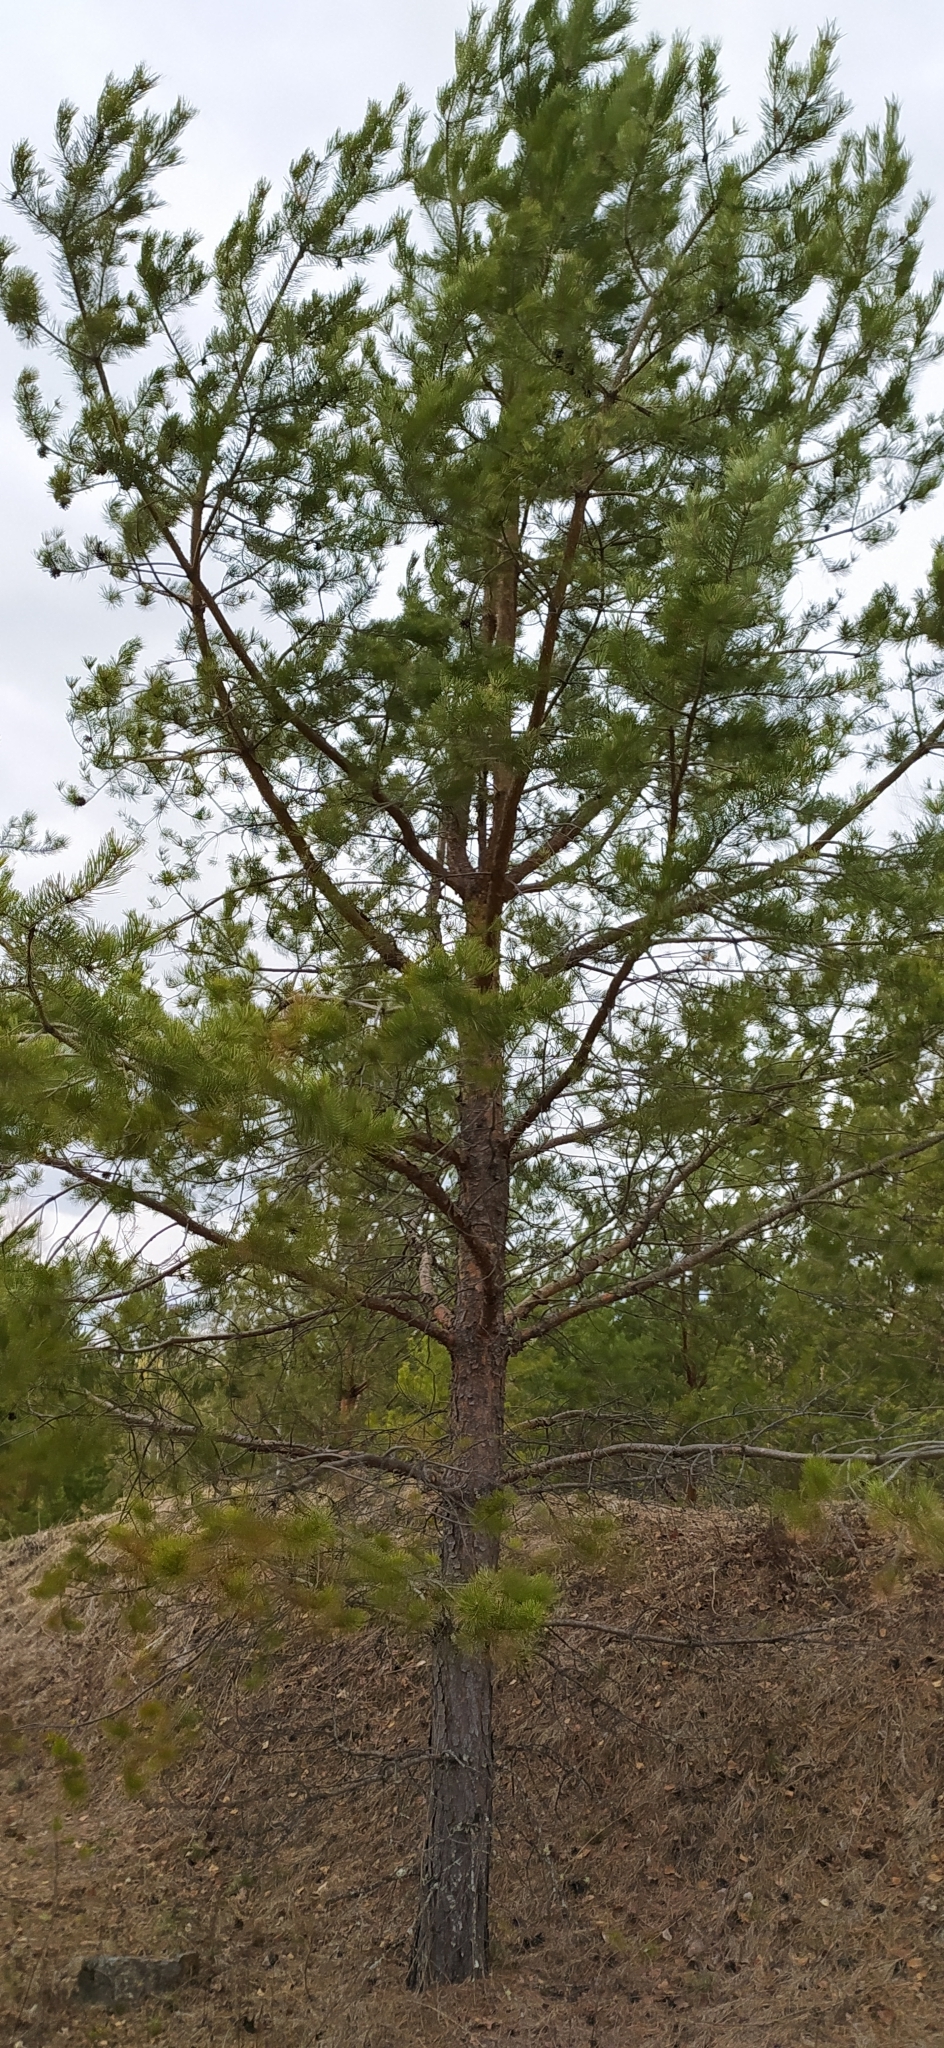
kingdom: Plantae
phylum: Tracheophyta
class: Pinopsida
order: Pinales
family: Pinaceae
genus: Pinus
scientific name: Pinus sylvestris
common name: Scots pine
